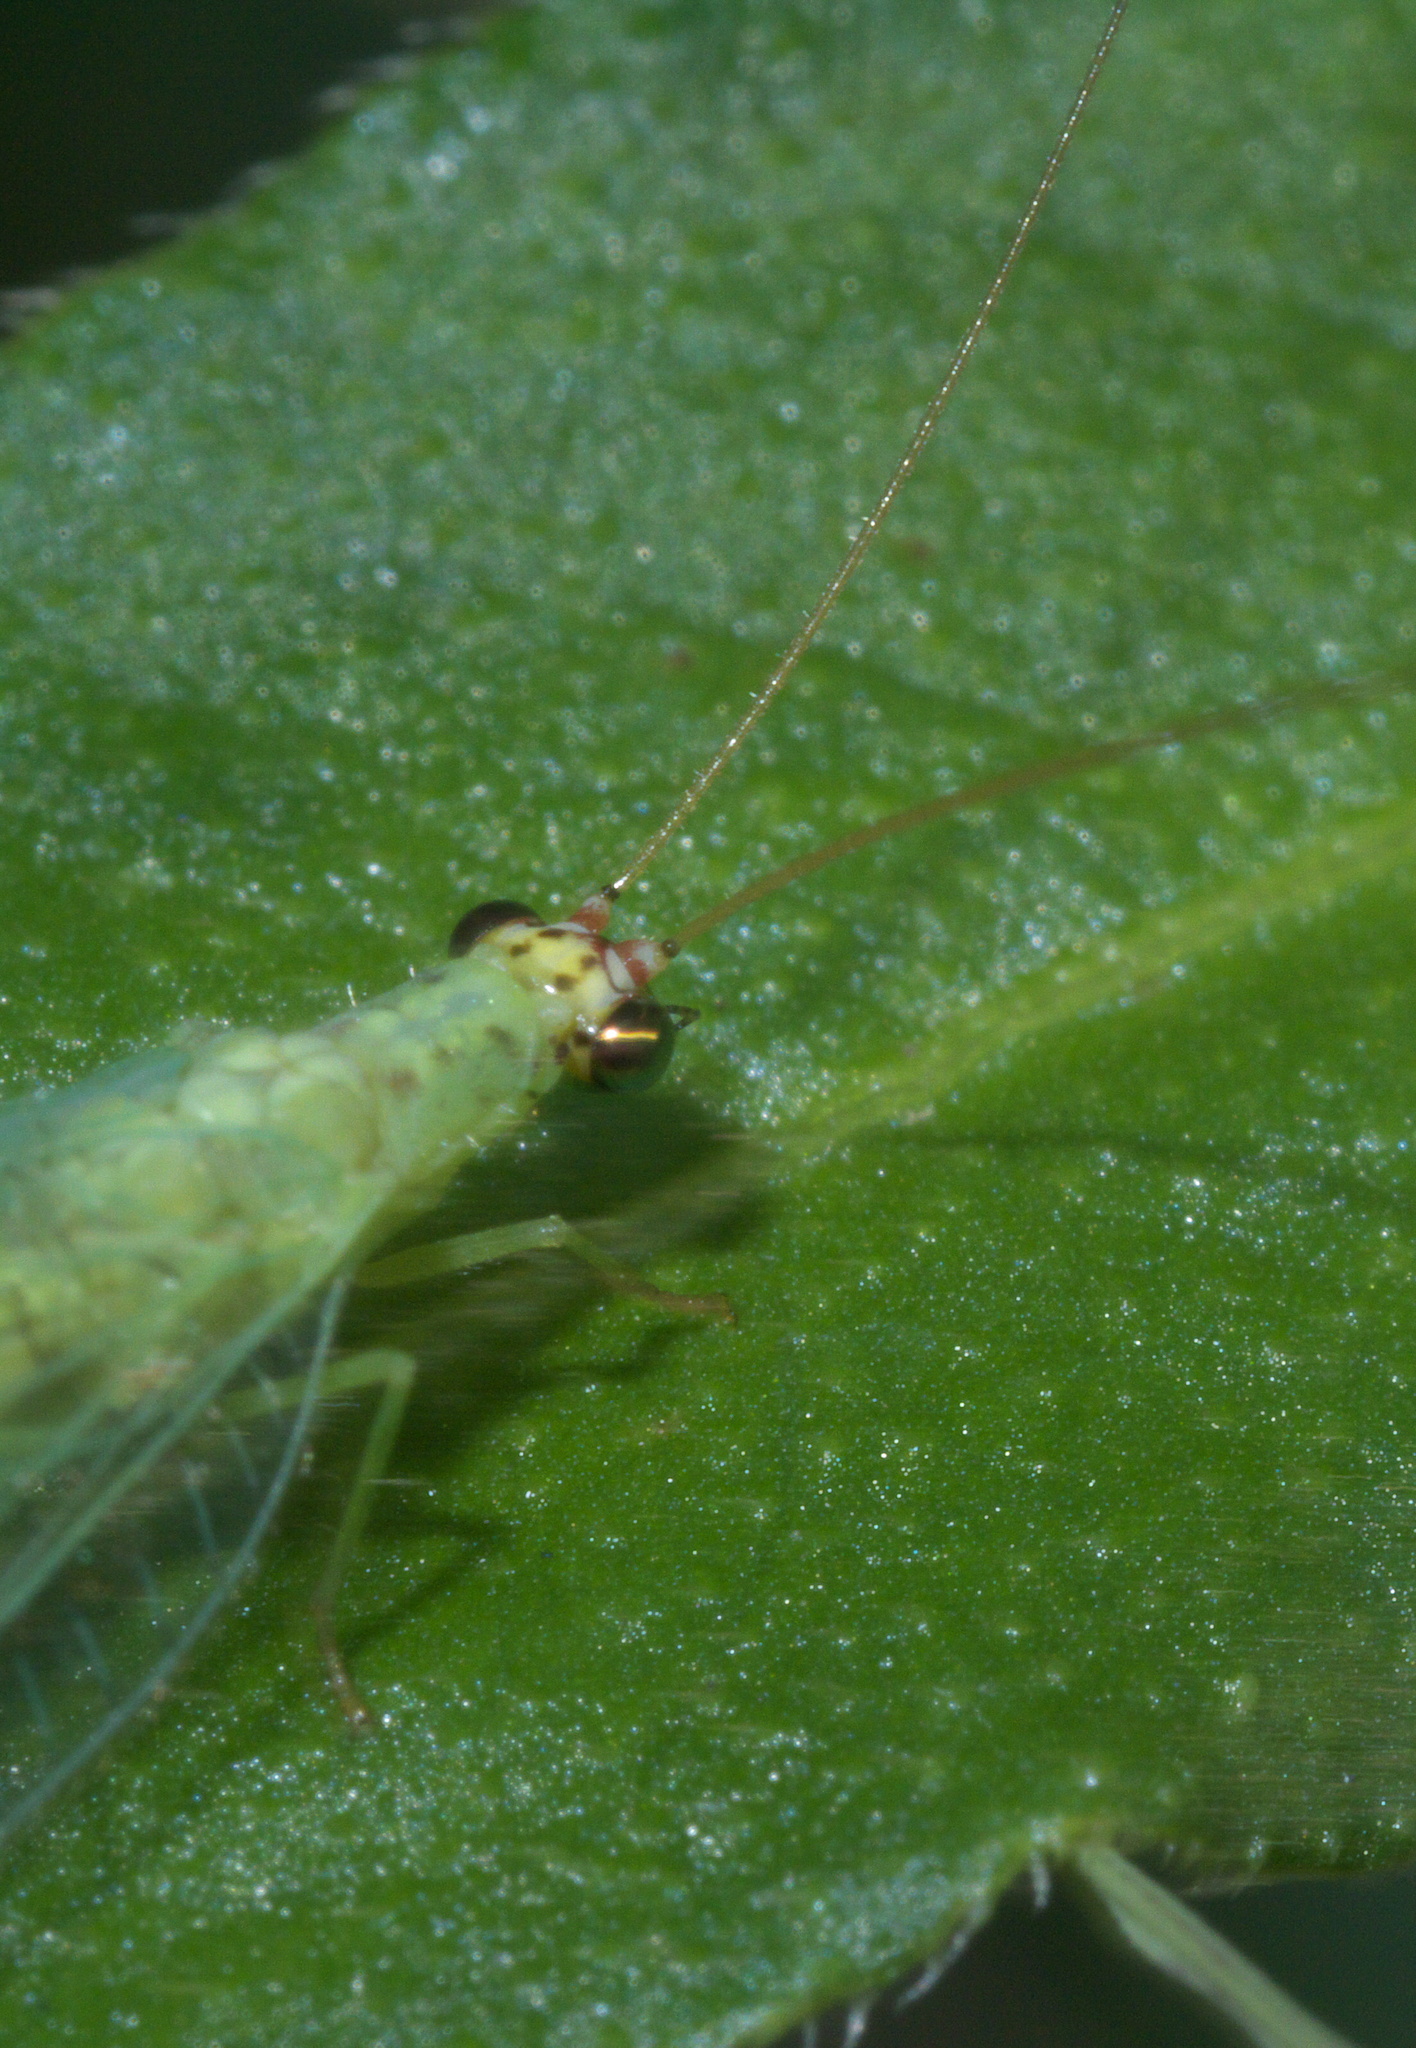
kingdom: Animalia
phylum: Arthropoda
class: Insecta
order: Neuroptera
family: Chrysopidae
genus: Chrysopa
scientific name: Chrysopa oculata
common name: Golden-eyed lacewing
